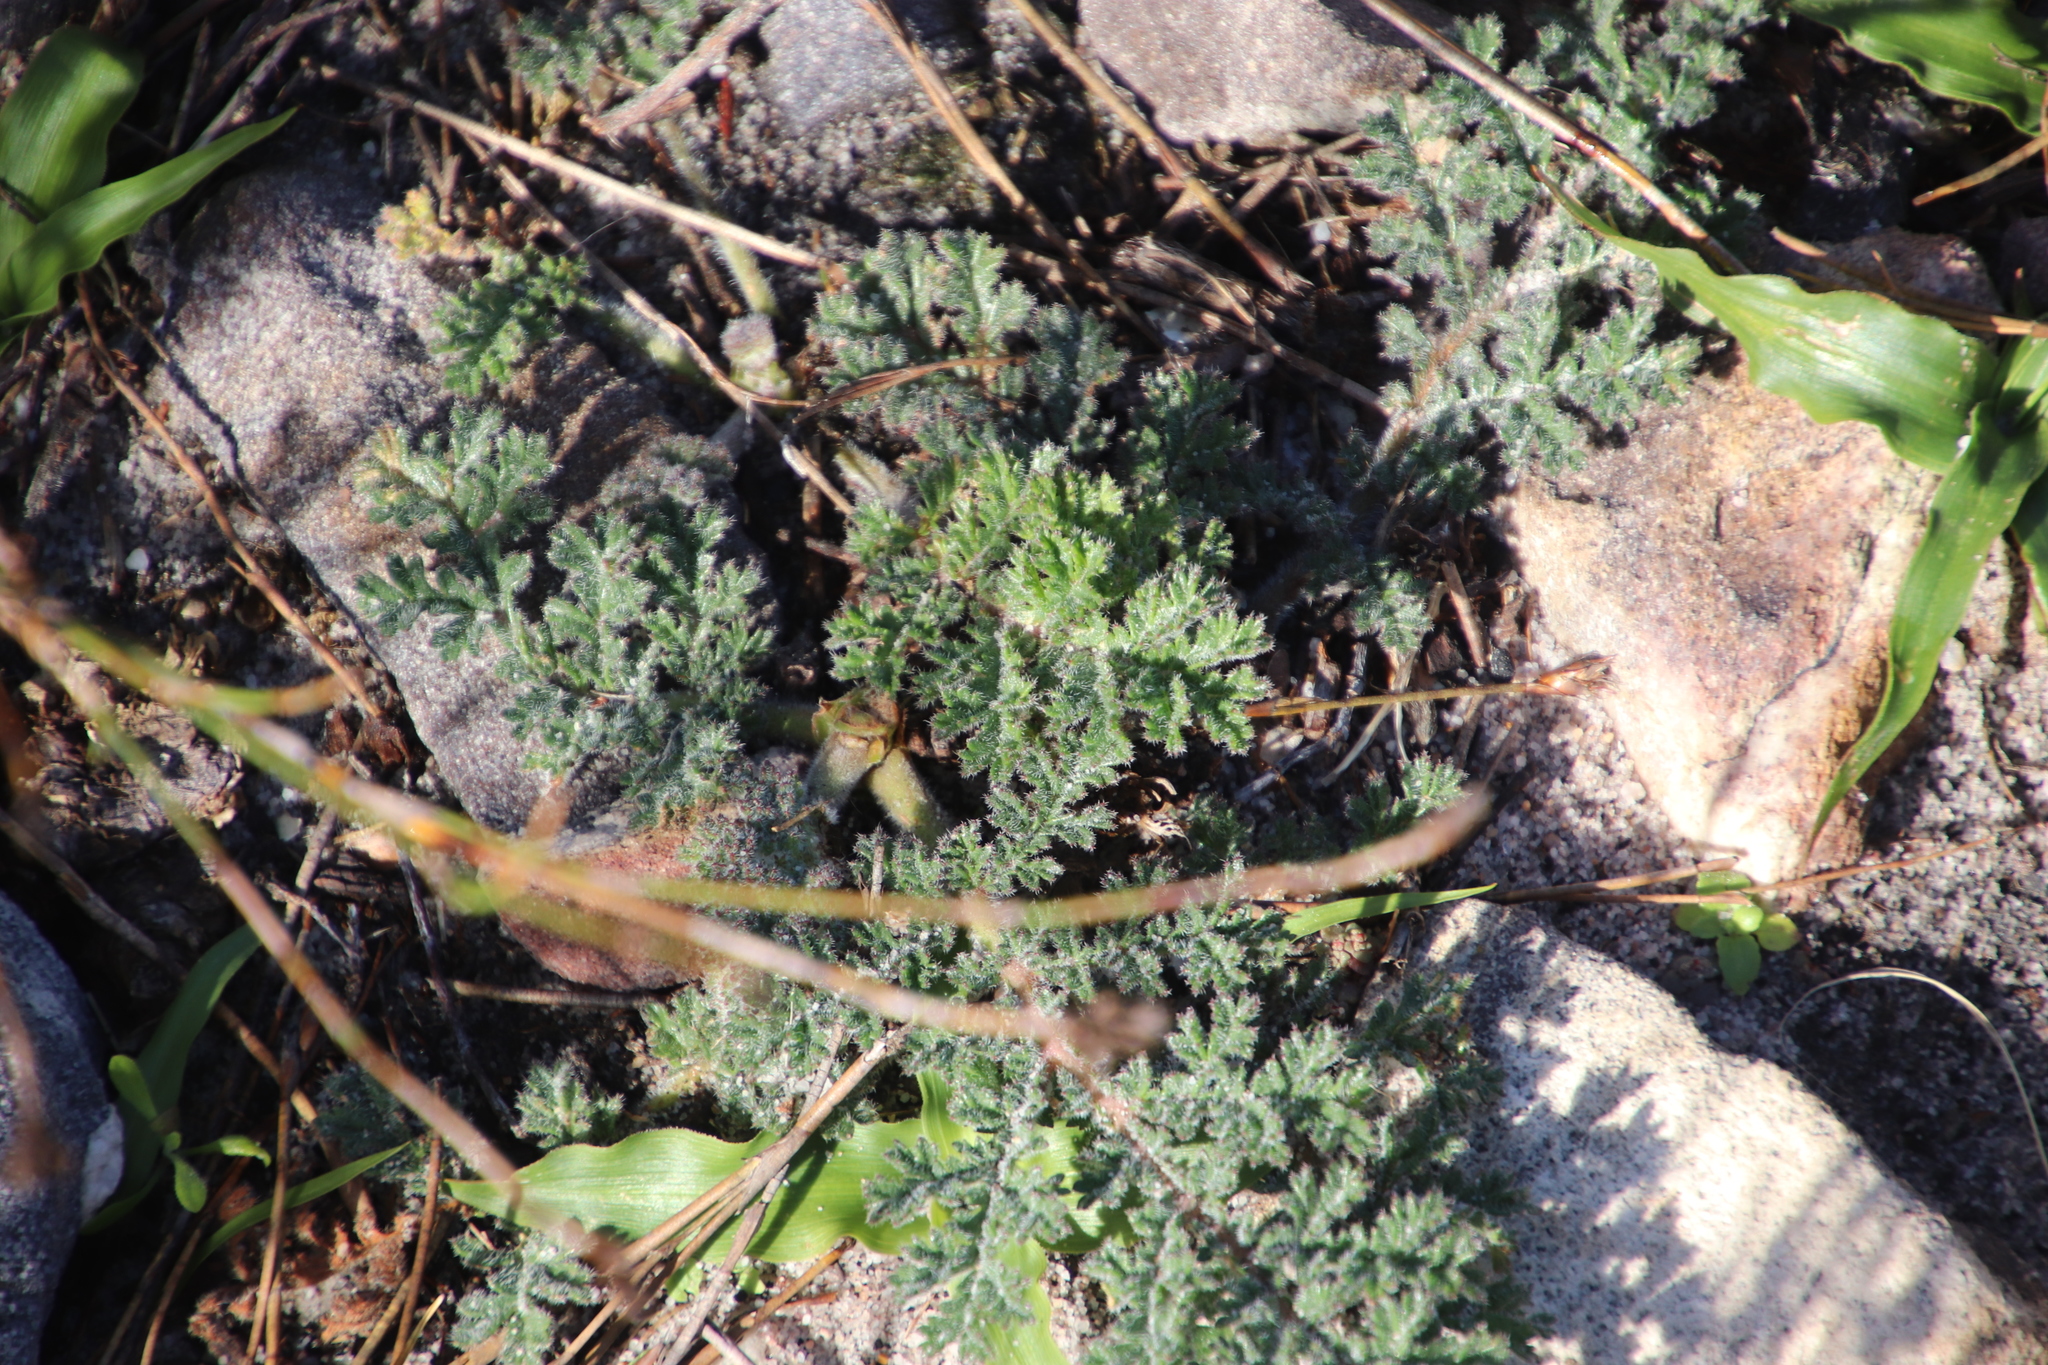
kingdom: Plantae
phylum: Tracheophyta
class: Magnoliopsida
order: Geraniales
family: Geraniaceae
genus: Pelargonium
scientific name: Pelargonium triste
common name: Night-scent pelargonium
